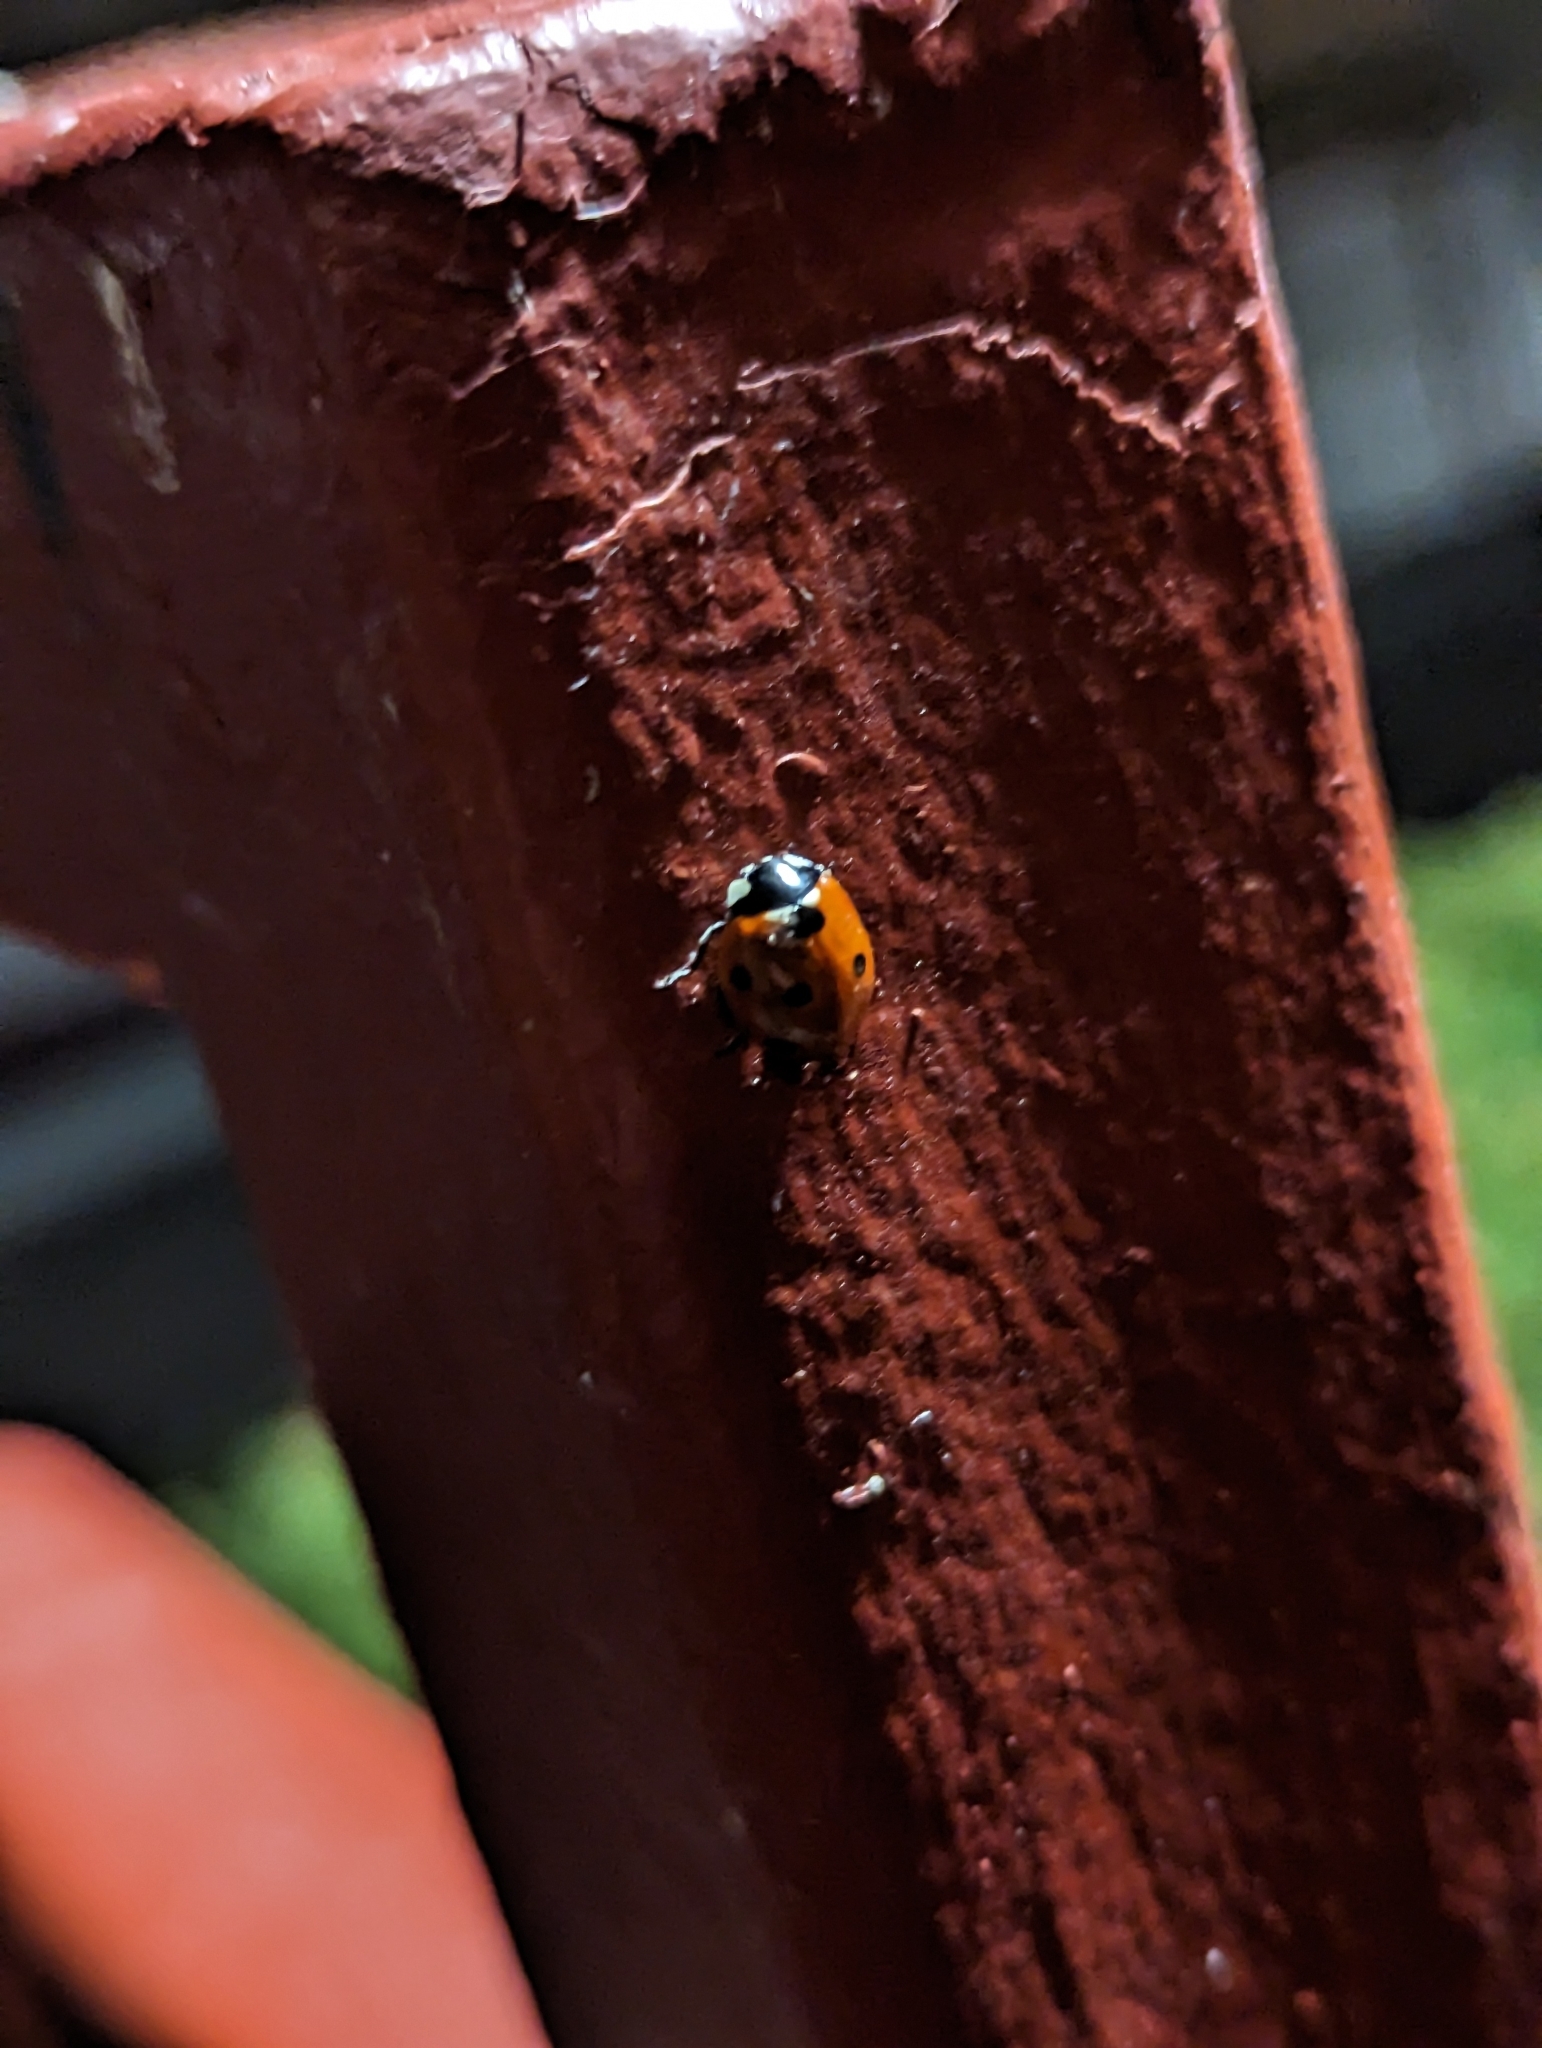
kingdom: Animalia
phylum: Arthropoda
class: Insecta
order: Coleoptera
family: Coccinellidae
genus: Coccinella
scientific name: Coccinella septempunctata
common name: Sevenspotted lady beetle
